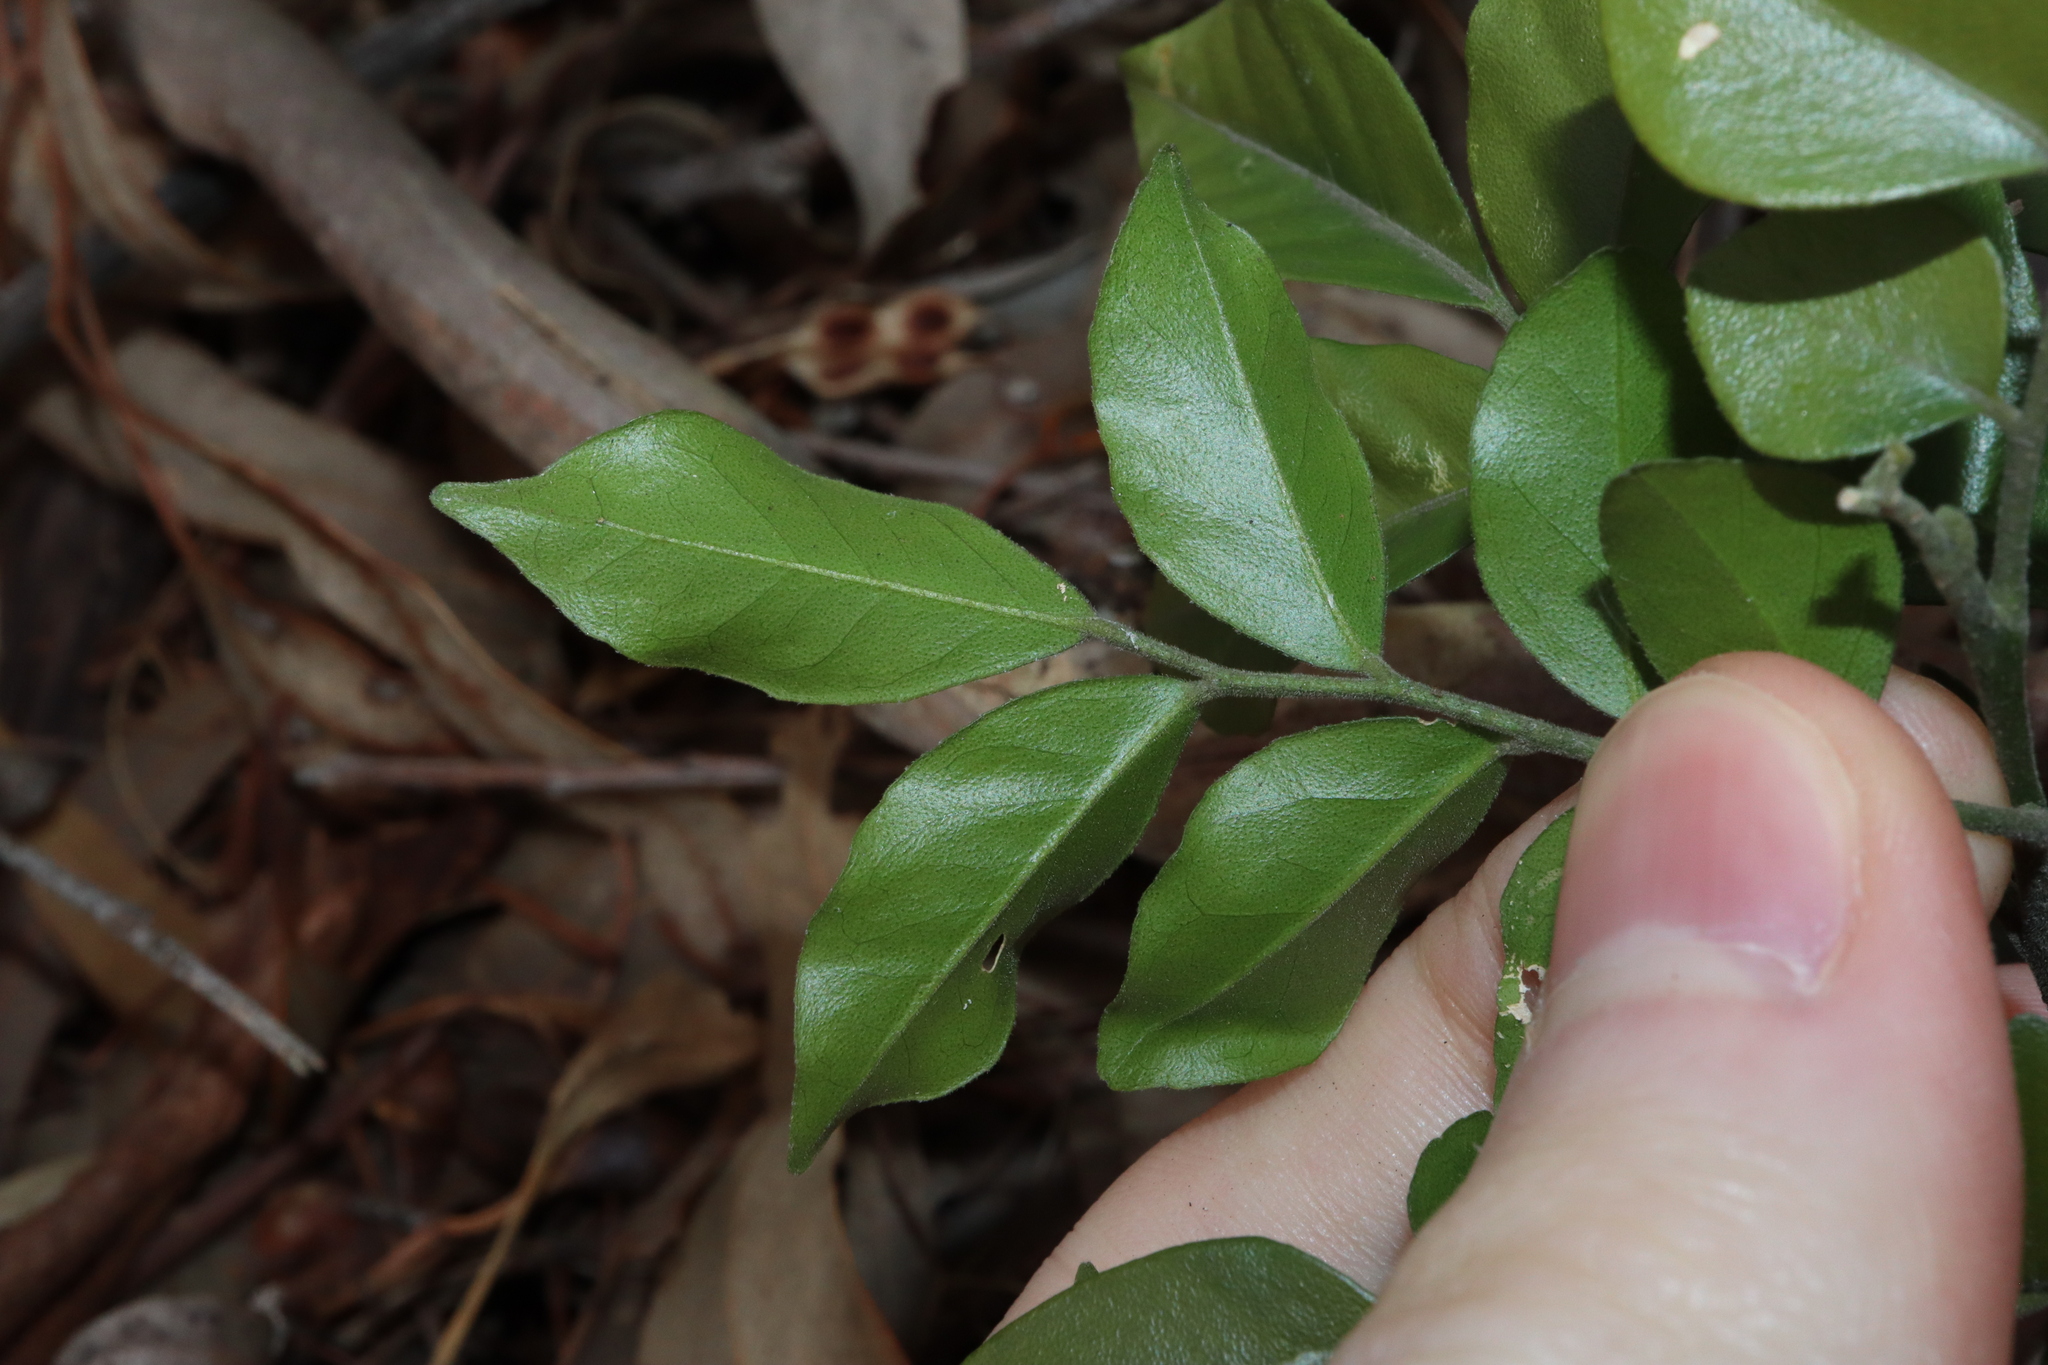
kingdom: Plantae
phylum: Tracheophyta
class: Magnoliopsida
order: Sapindales
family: Rutaceae
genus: Murraya
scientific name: Murraya paniculata
